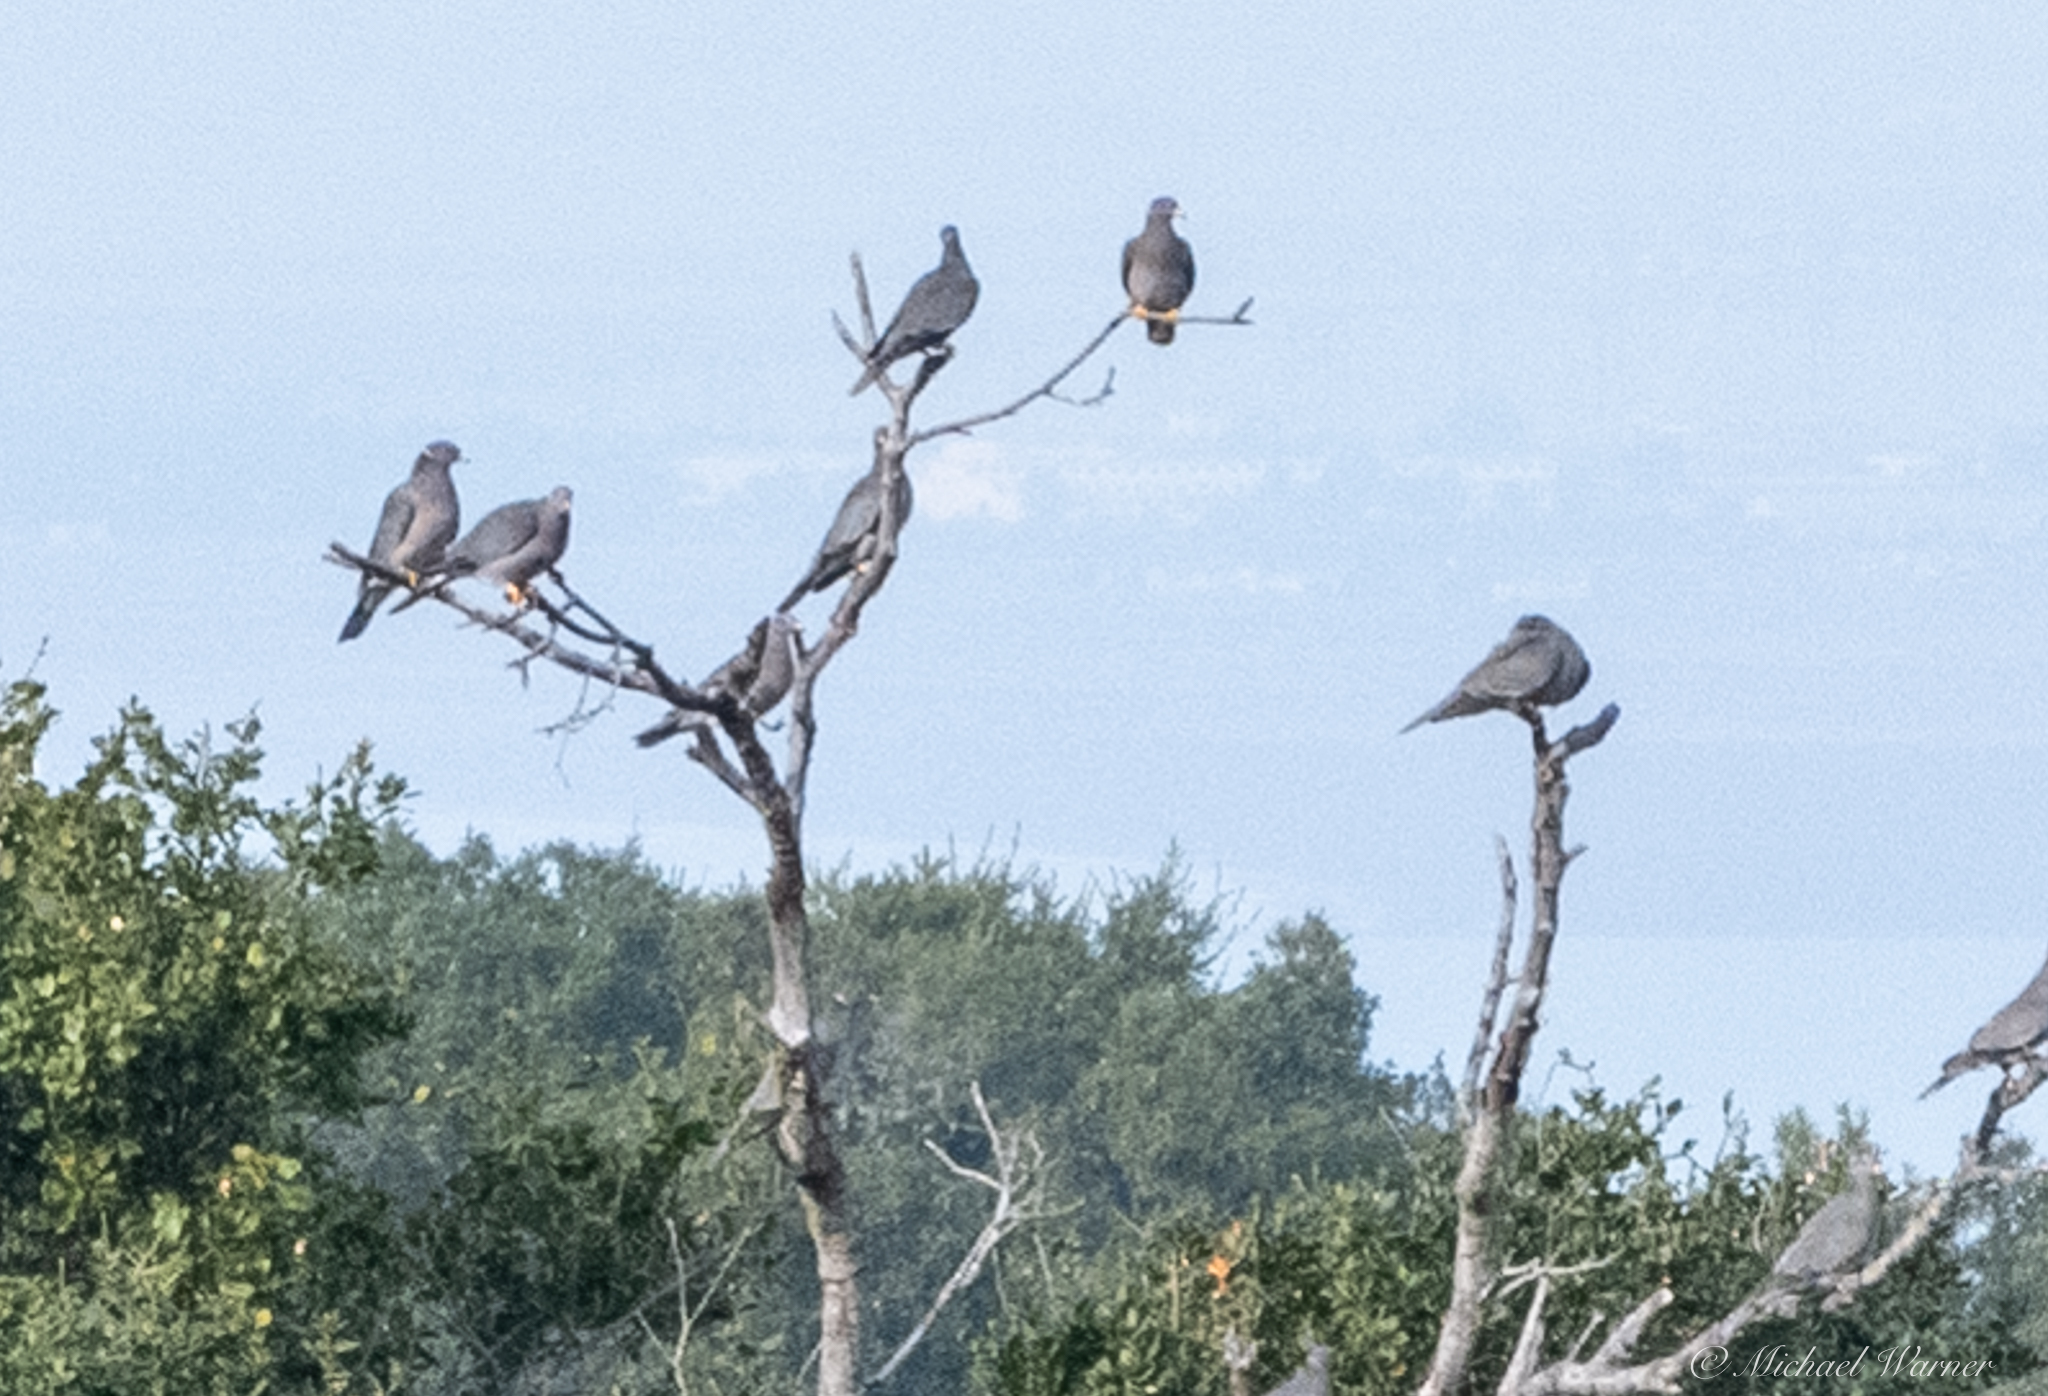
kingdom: Animalia
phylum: Chordata
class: Aves
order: Columbiformes
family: Columbidae
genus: Patagioenas
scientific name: Patagioenas fasciata
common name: Band-tailed pigeon
